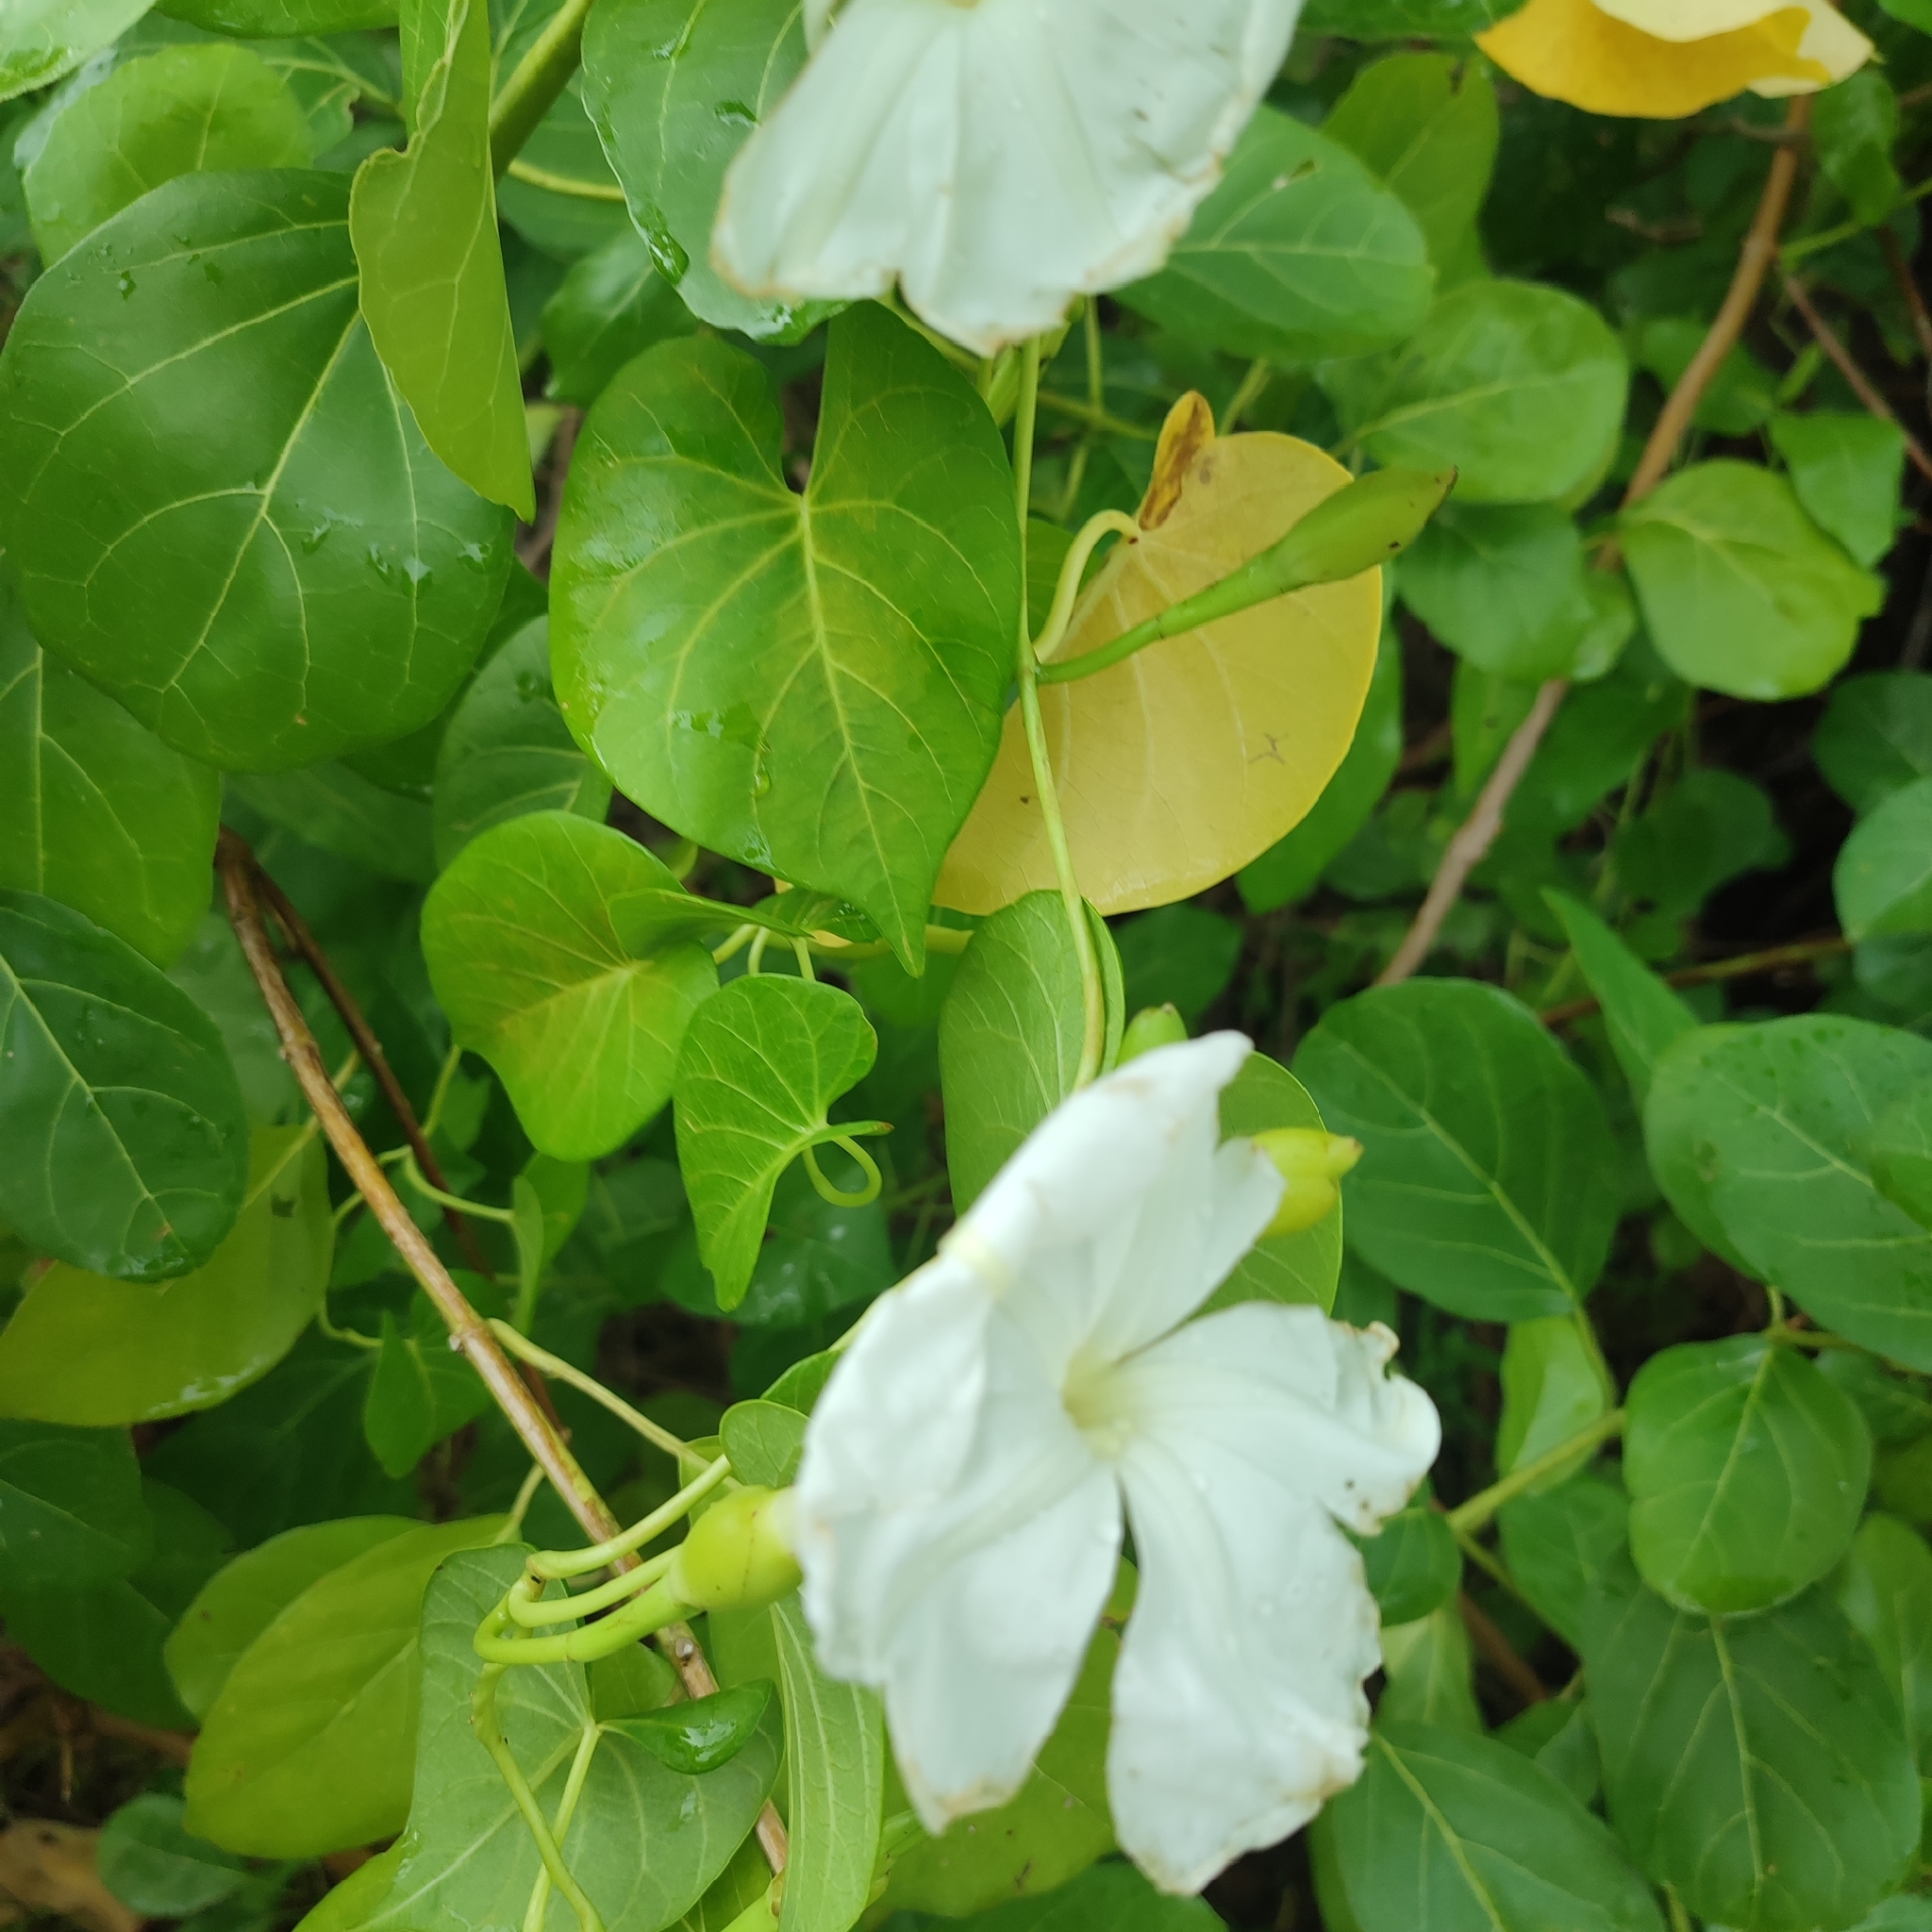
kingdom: Plantae
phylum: Tracheophyta
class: Magnoliopsida
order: Solanales
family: Convolvulaceae
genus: Ipomoea
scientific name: Ipomoea violacea
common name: Beach moonflower
